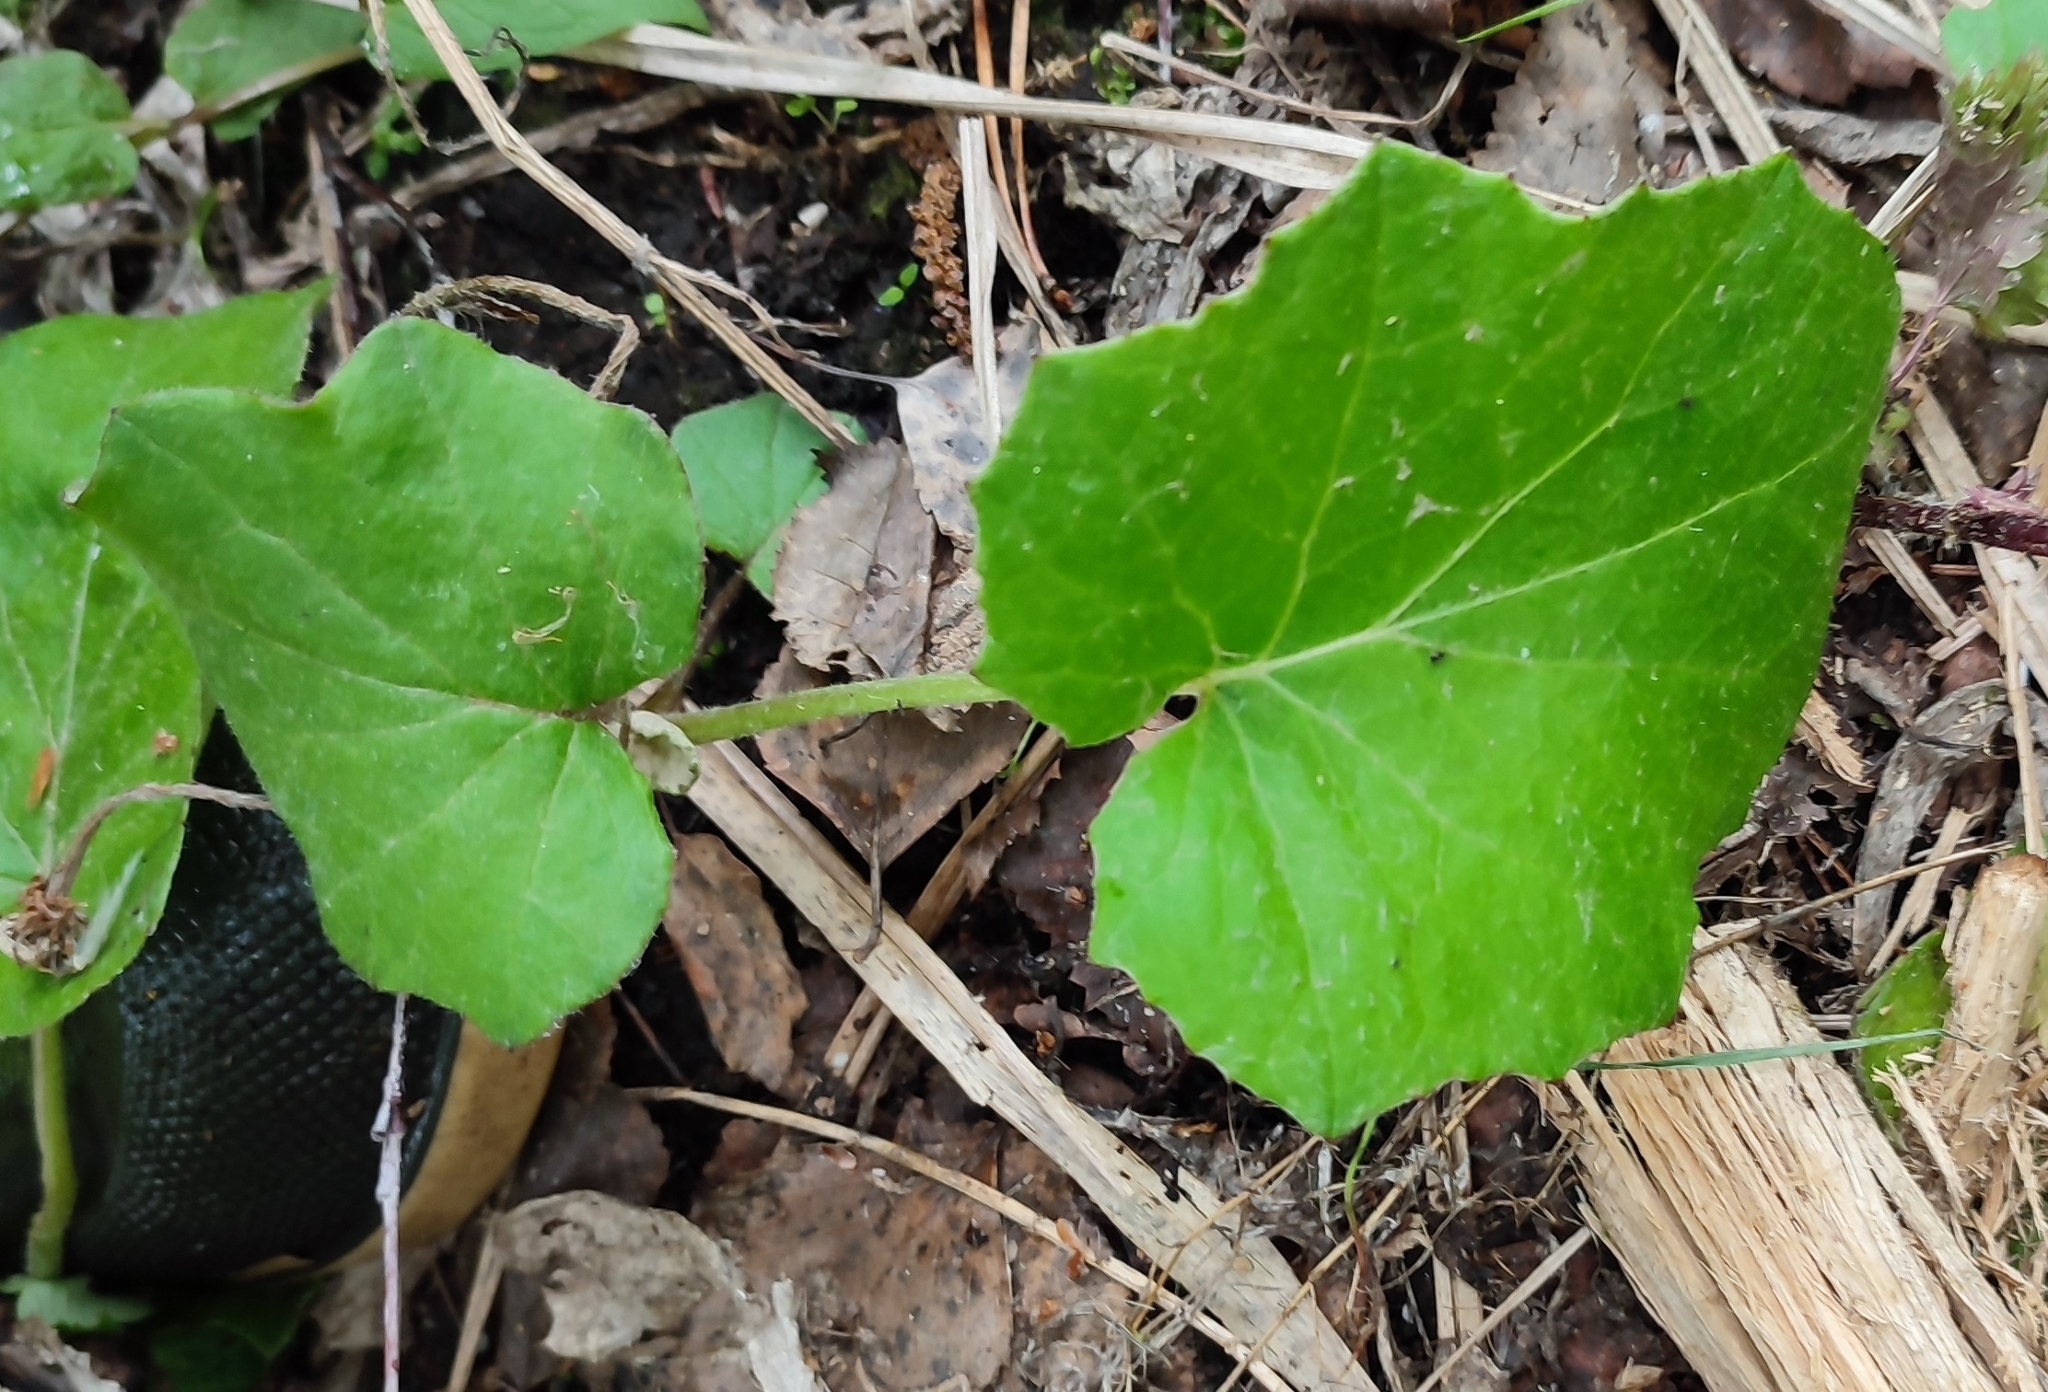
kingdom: Plantae
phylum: Tracheophyta
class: Magnoliopsida
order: Asterales
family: Asteraceae
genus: Tussilago
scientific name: Tussilago farfara
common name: Coltsfoot
